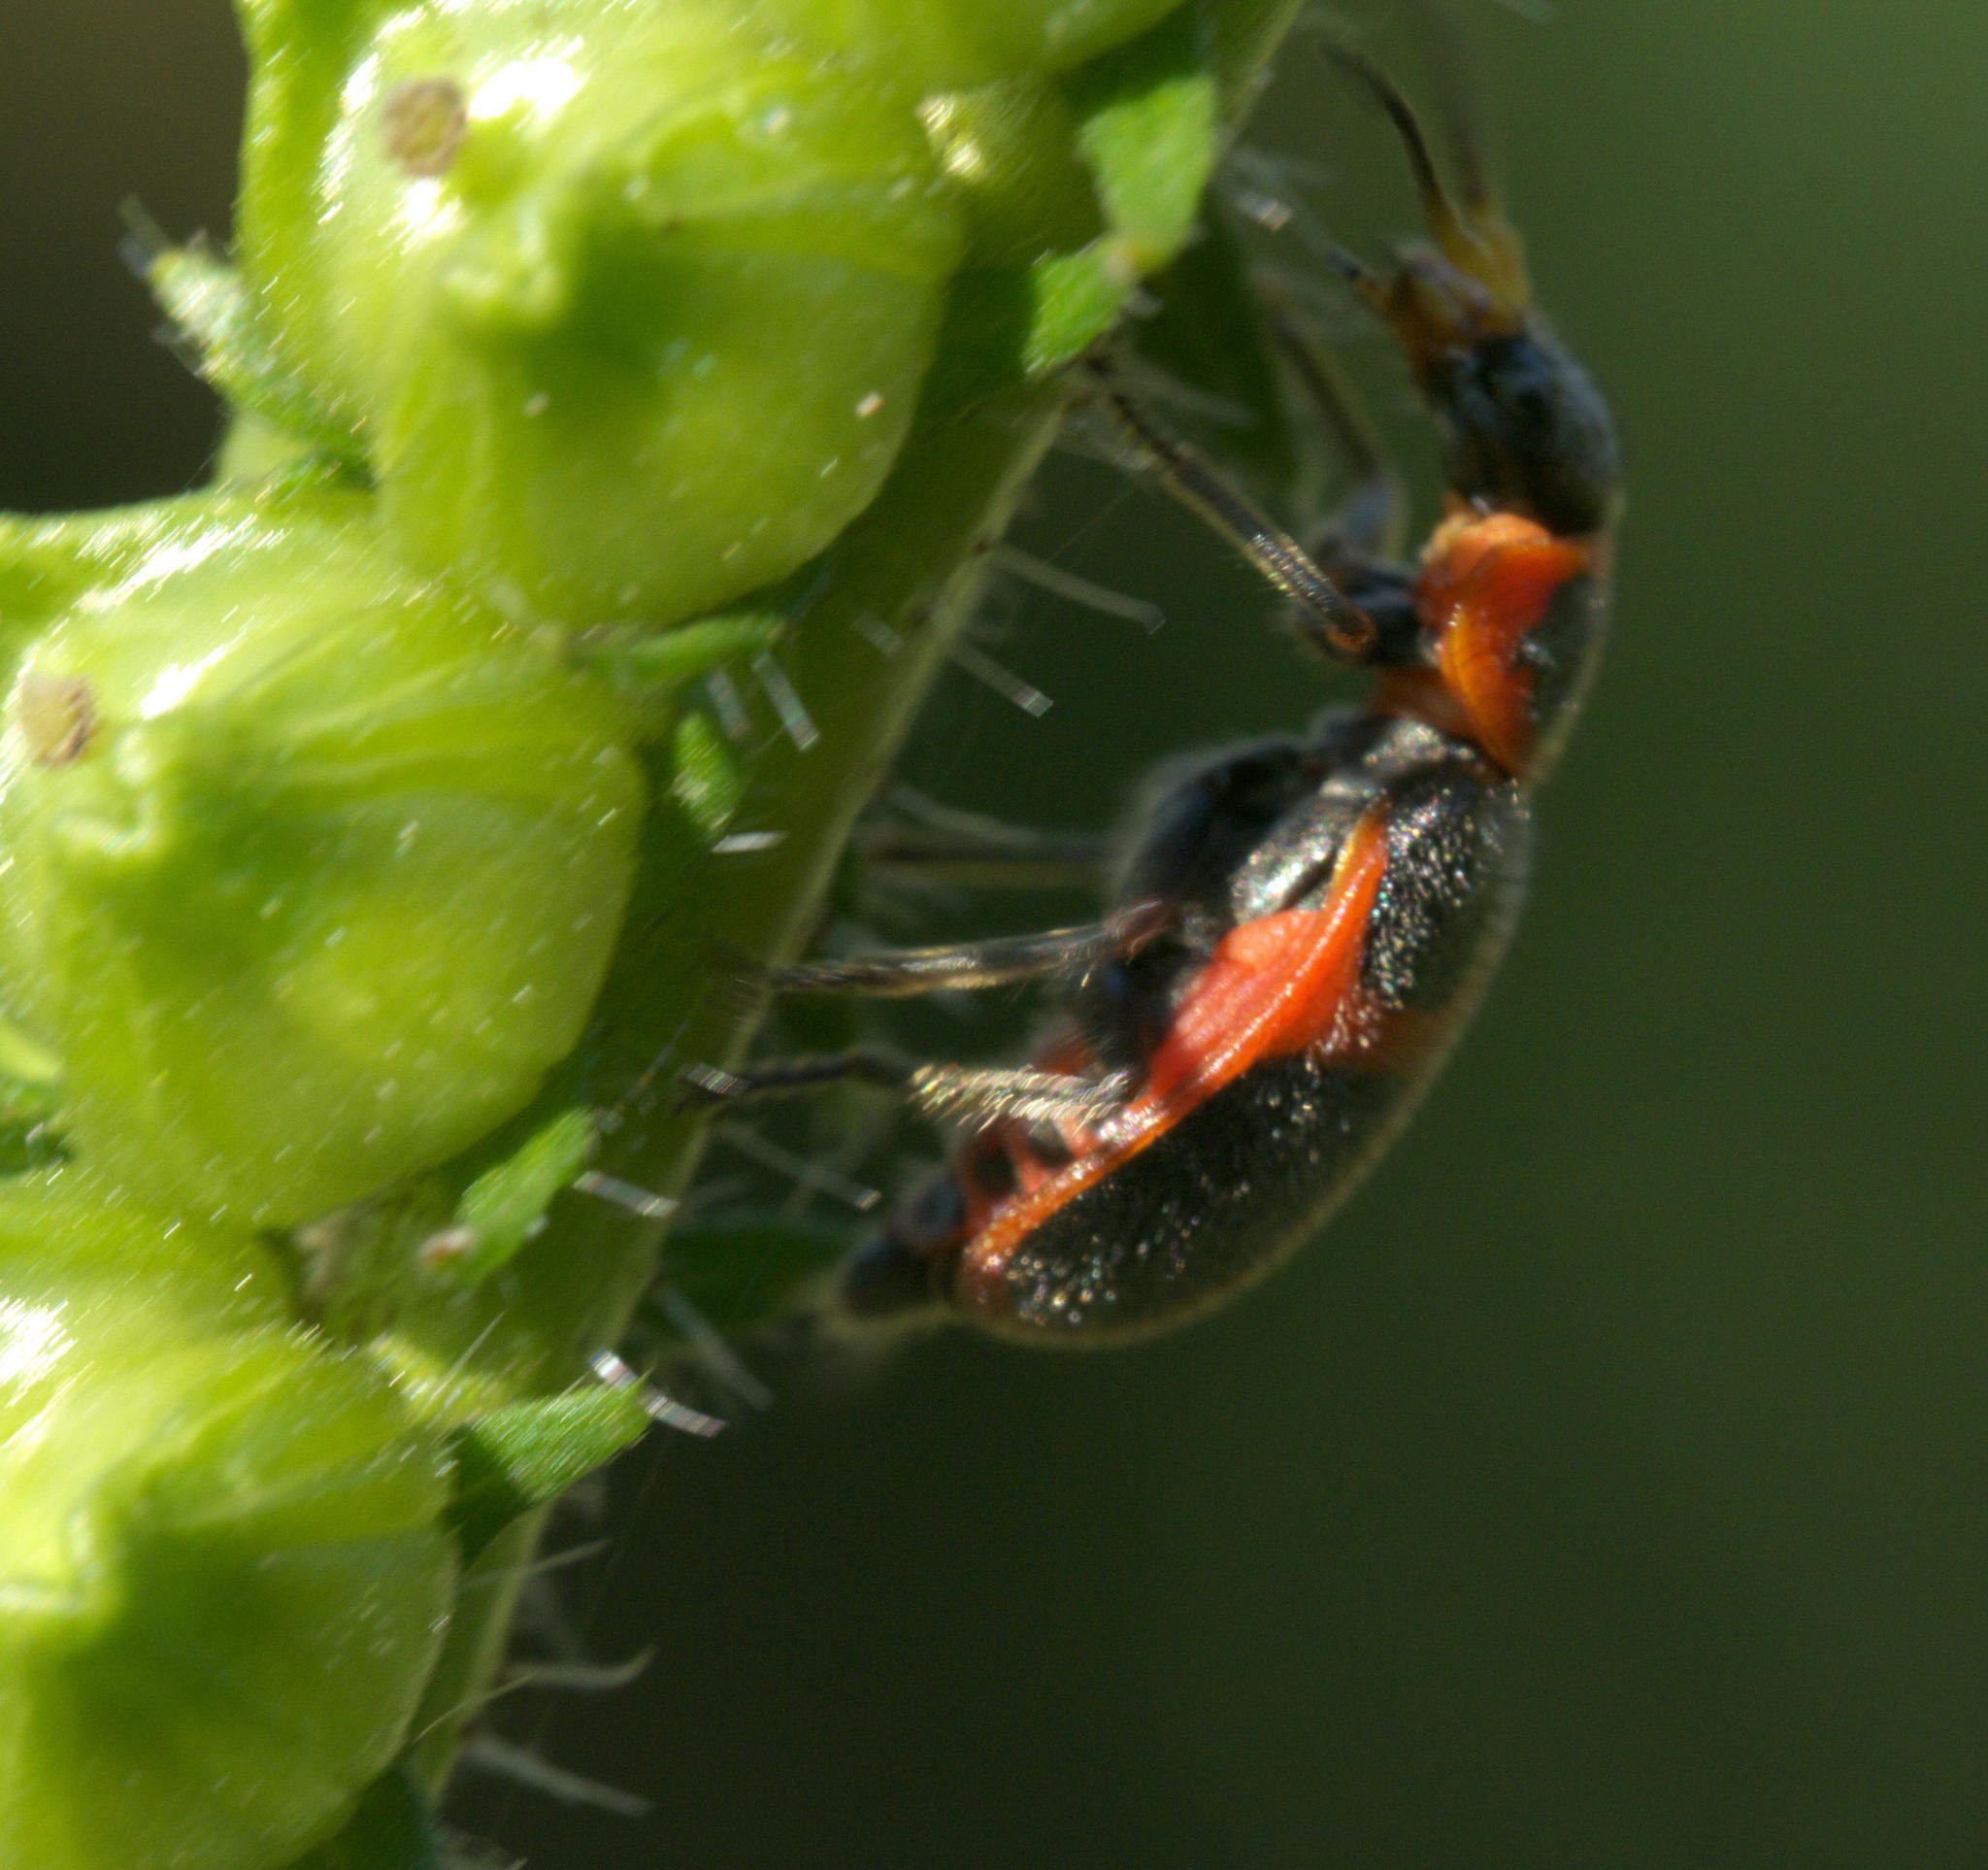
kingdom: Animalia
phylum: Arthropoda
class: Insecta
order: Coleoptera
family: Melyridae
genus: Collops
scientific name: Collops
